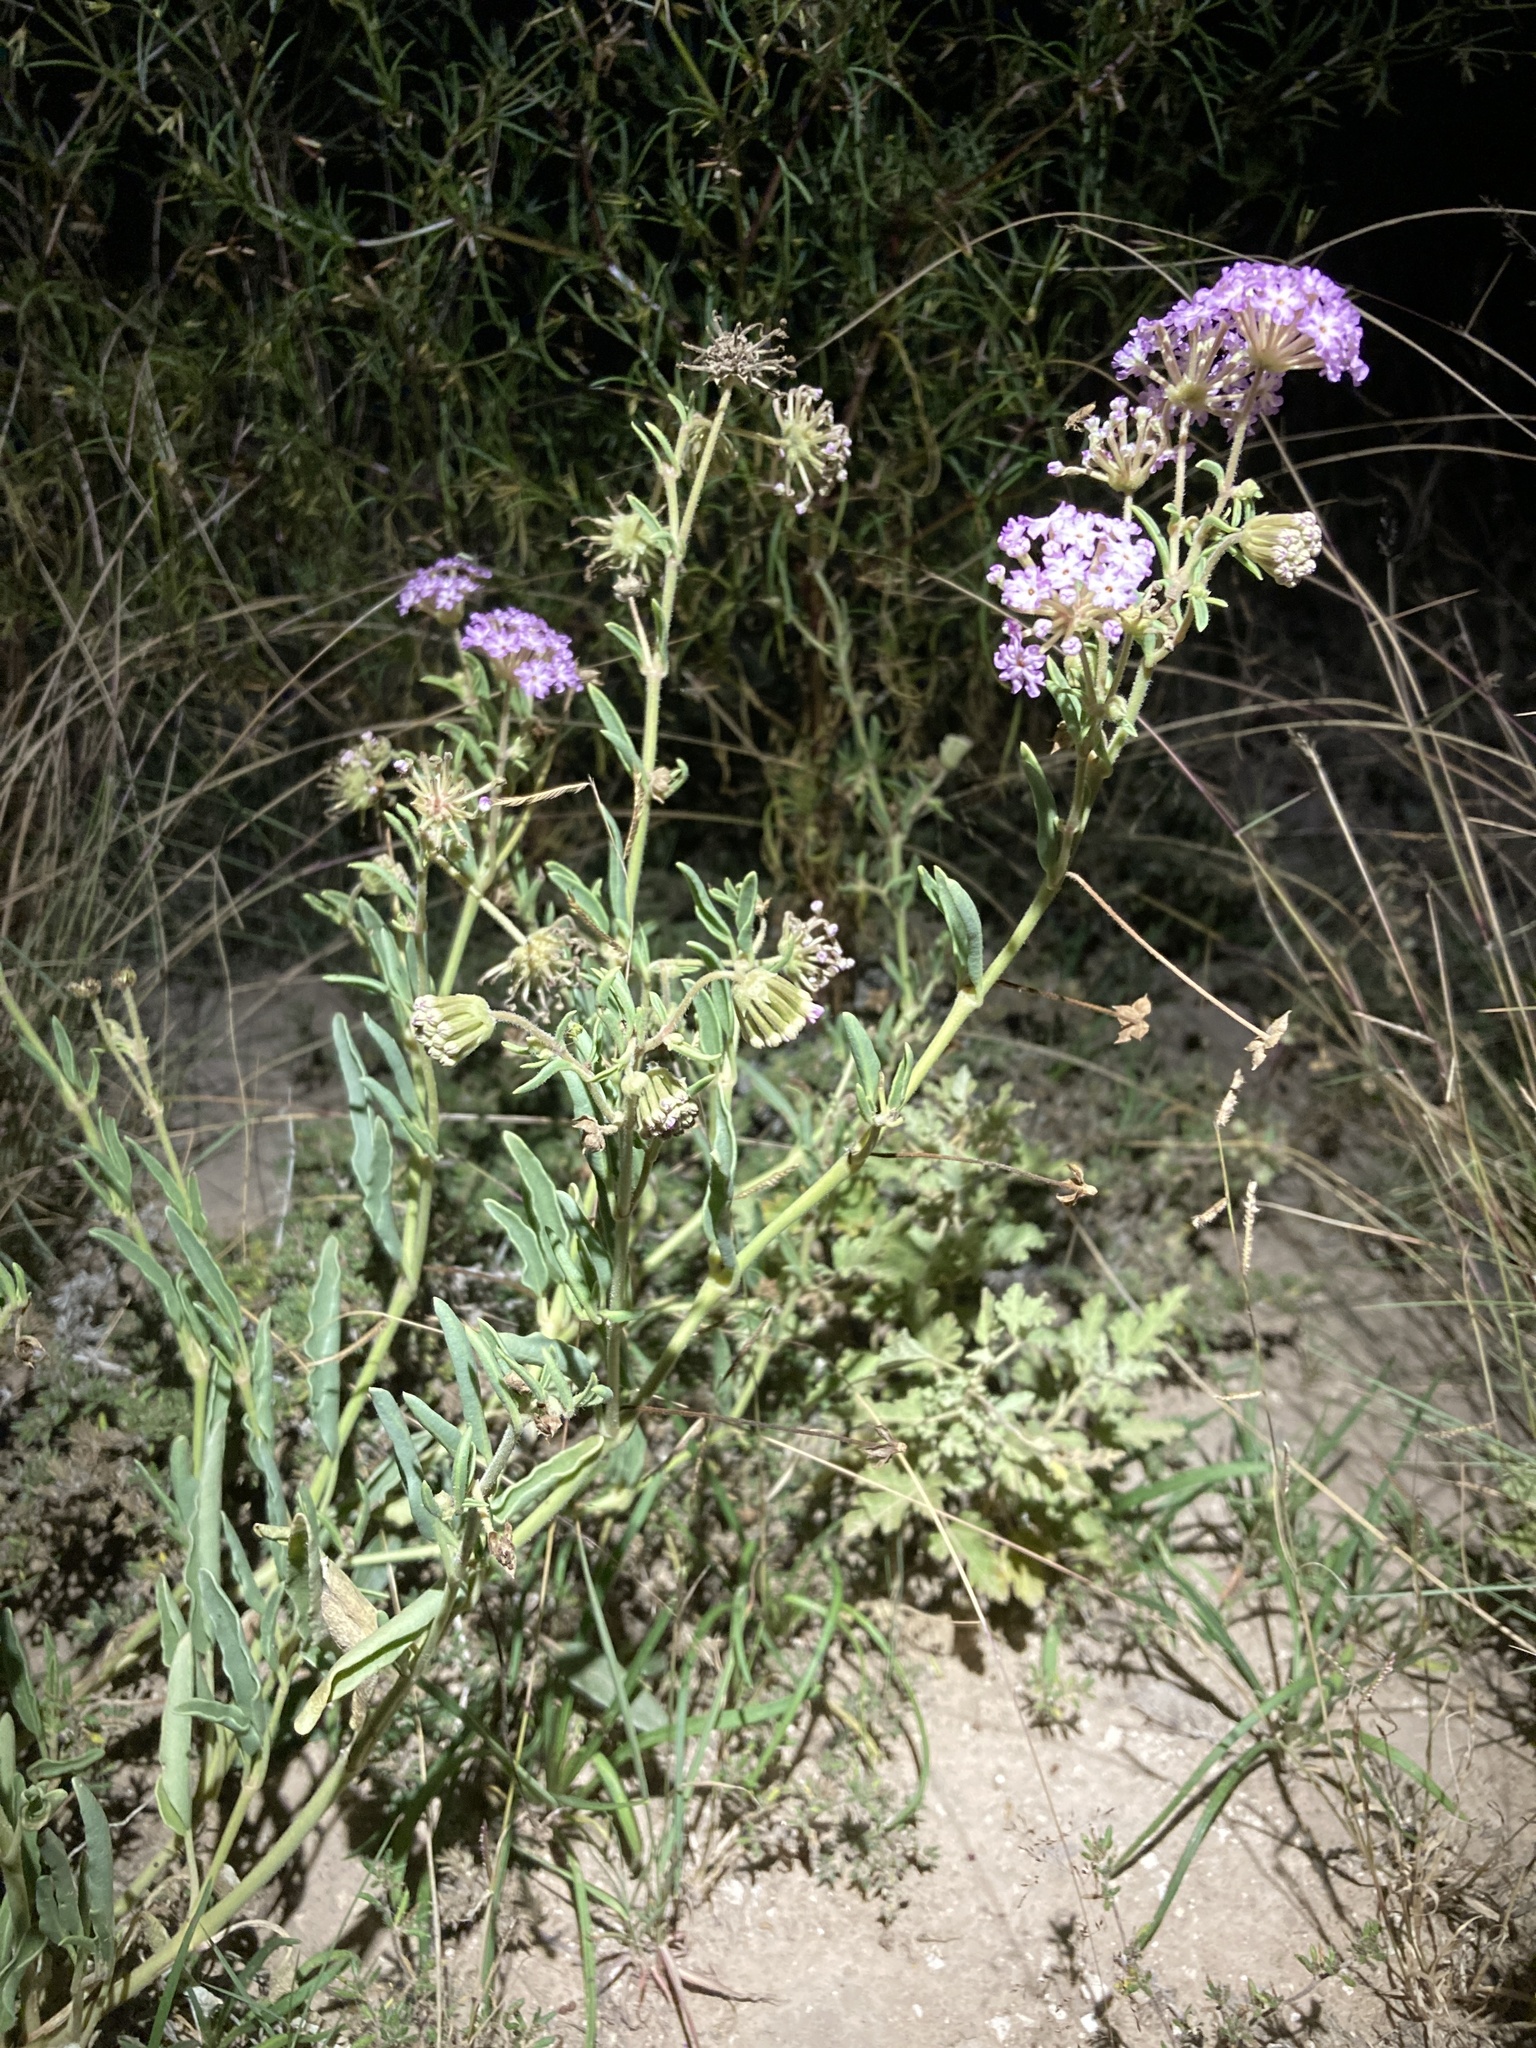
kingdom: Plantae
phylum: Tracheophyta
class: Magnoliopsida
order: Caryophyllales
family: Nyctaginaceae
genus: Abronia
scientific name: Abronia carletonii
